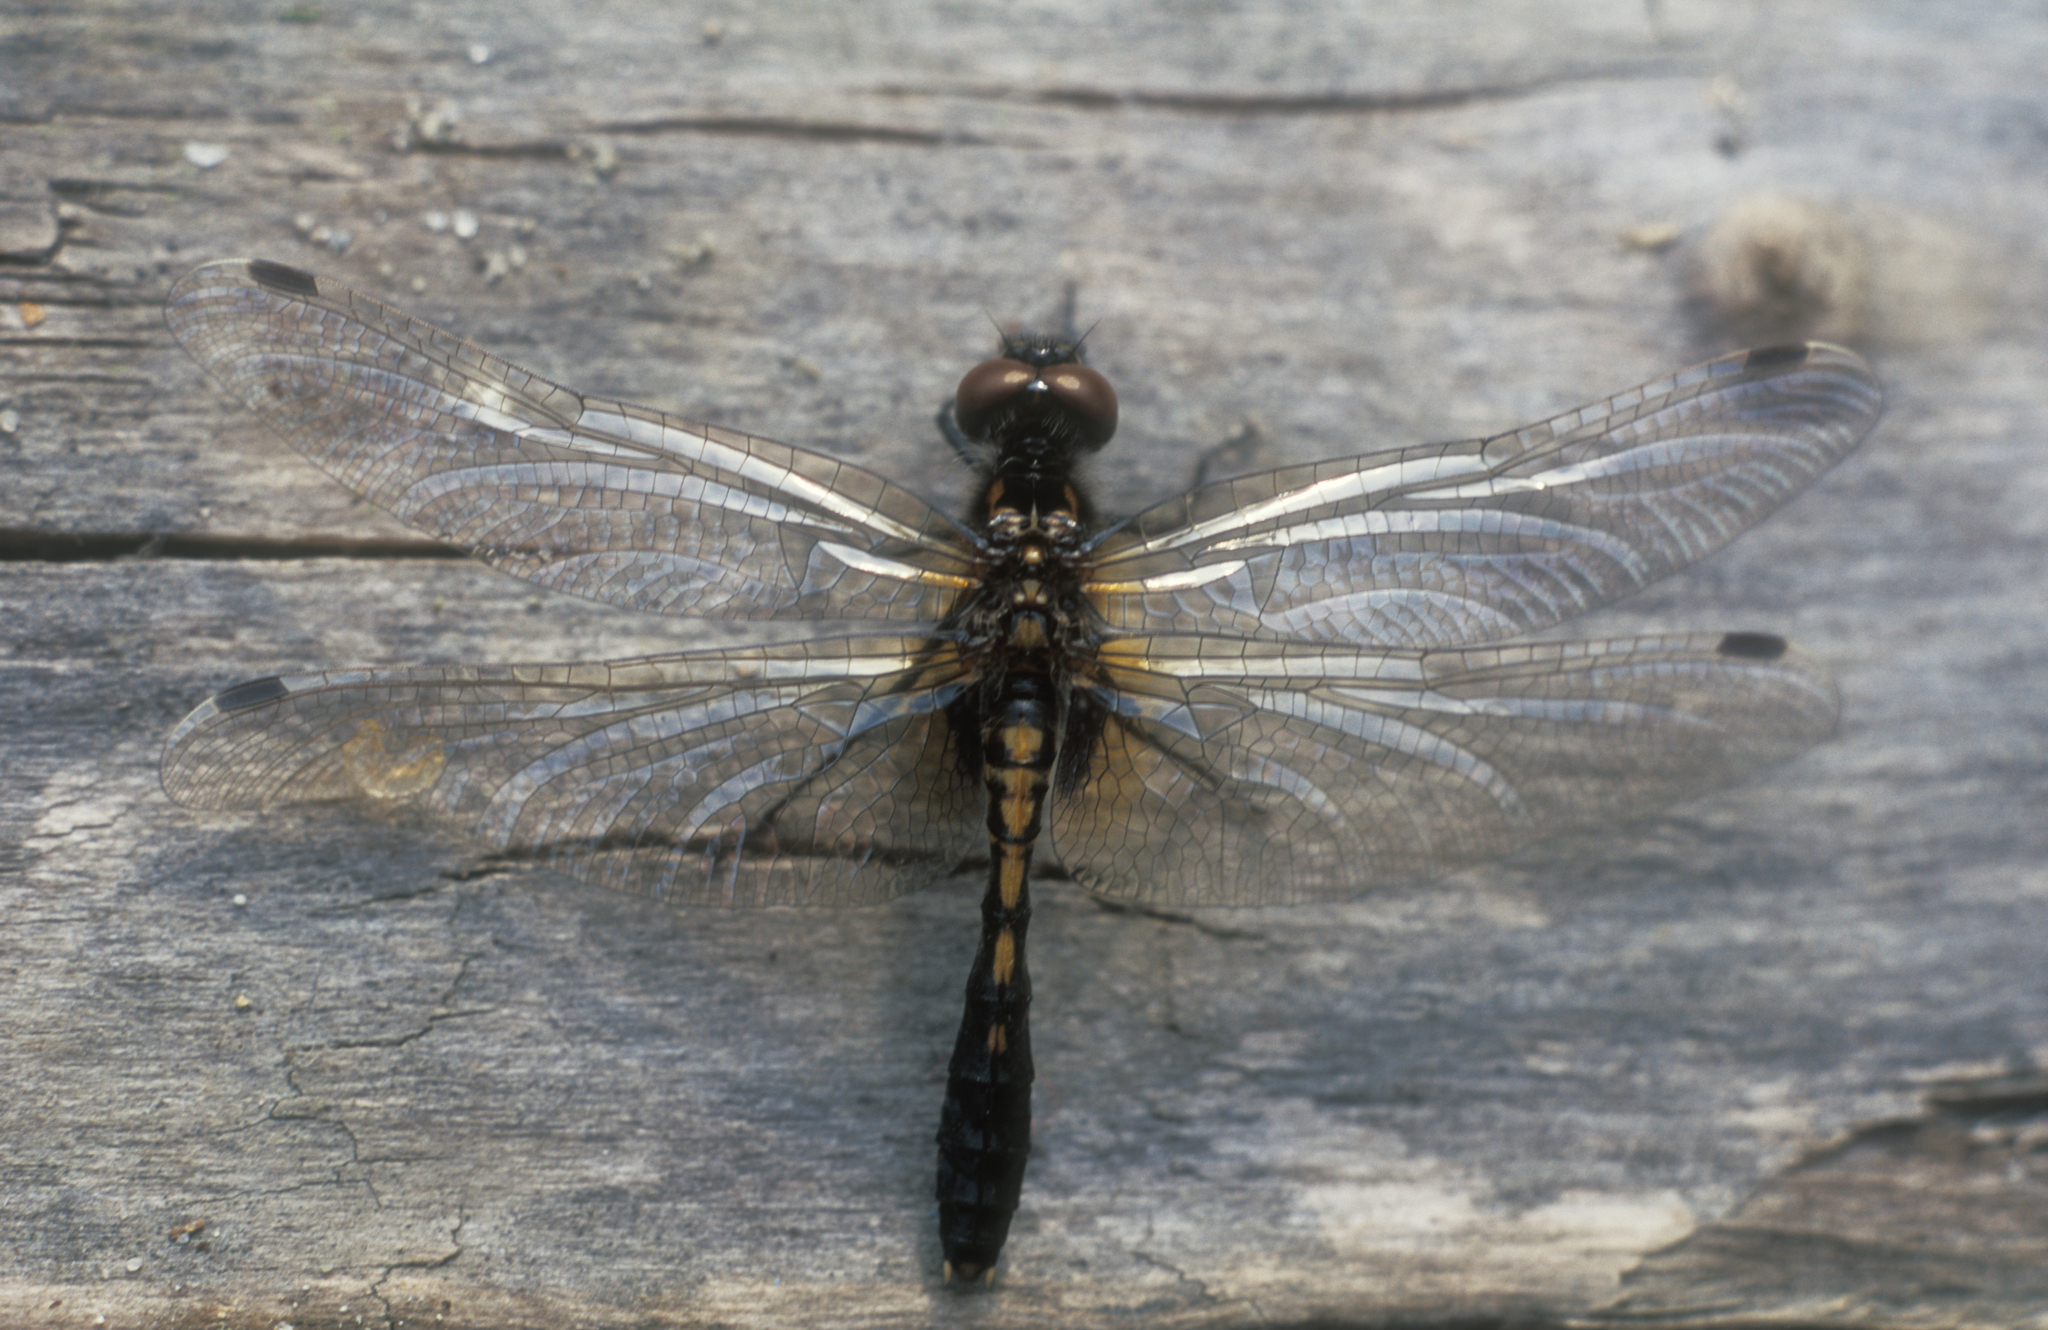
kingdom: Animalia
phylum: Arthropoda
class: Insecta
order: Odonata
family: Libellulidae
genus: Leucorrhinia
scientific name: Leucorrhinia caudalis
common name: Lilypad whiteface
